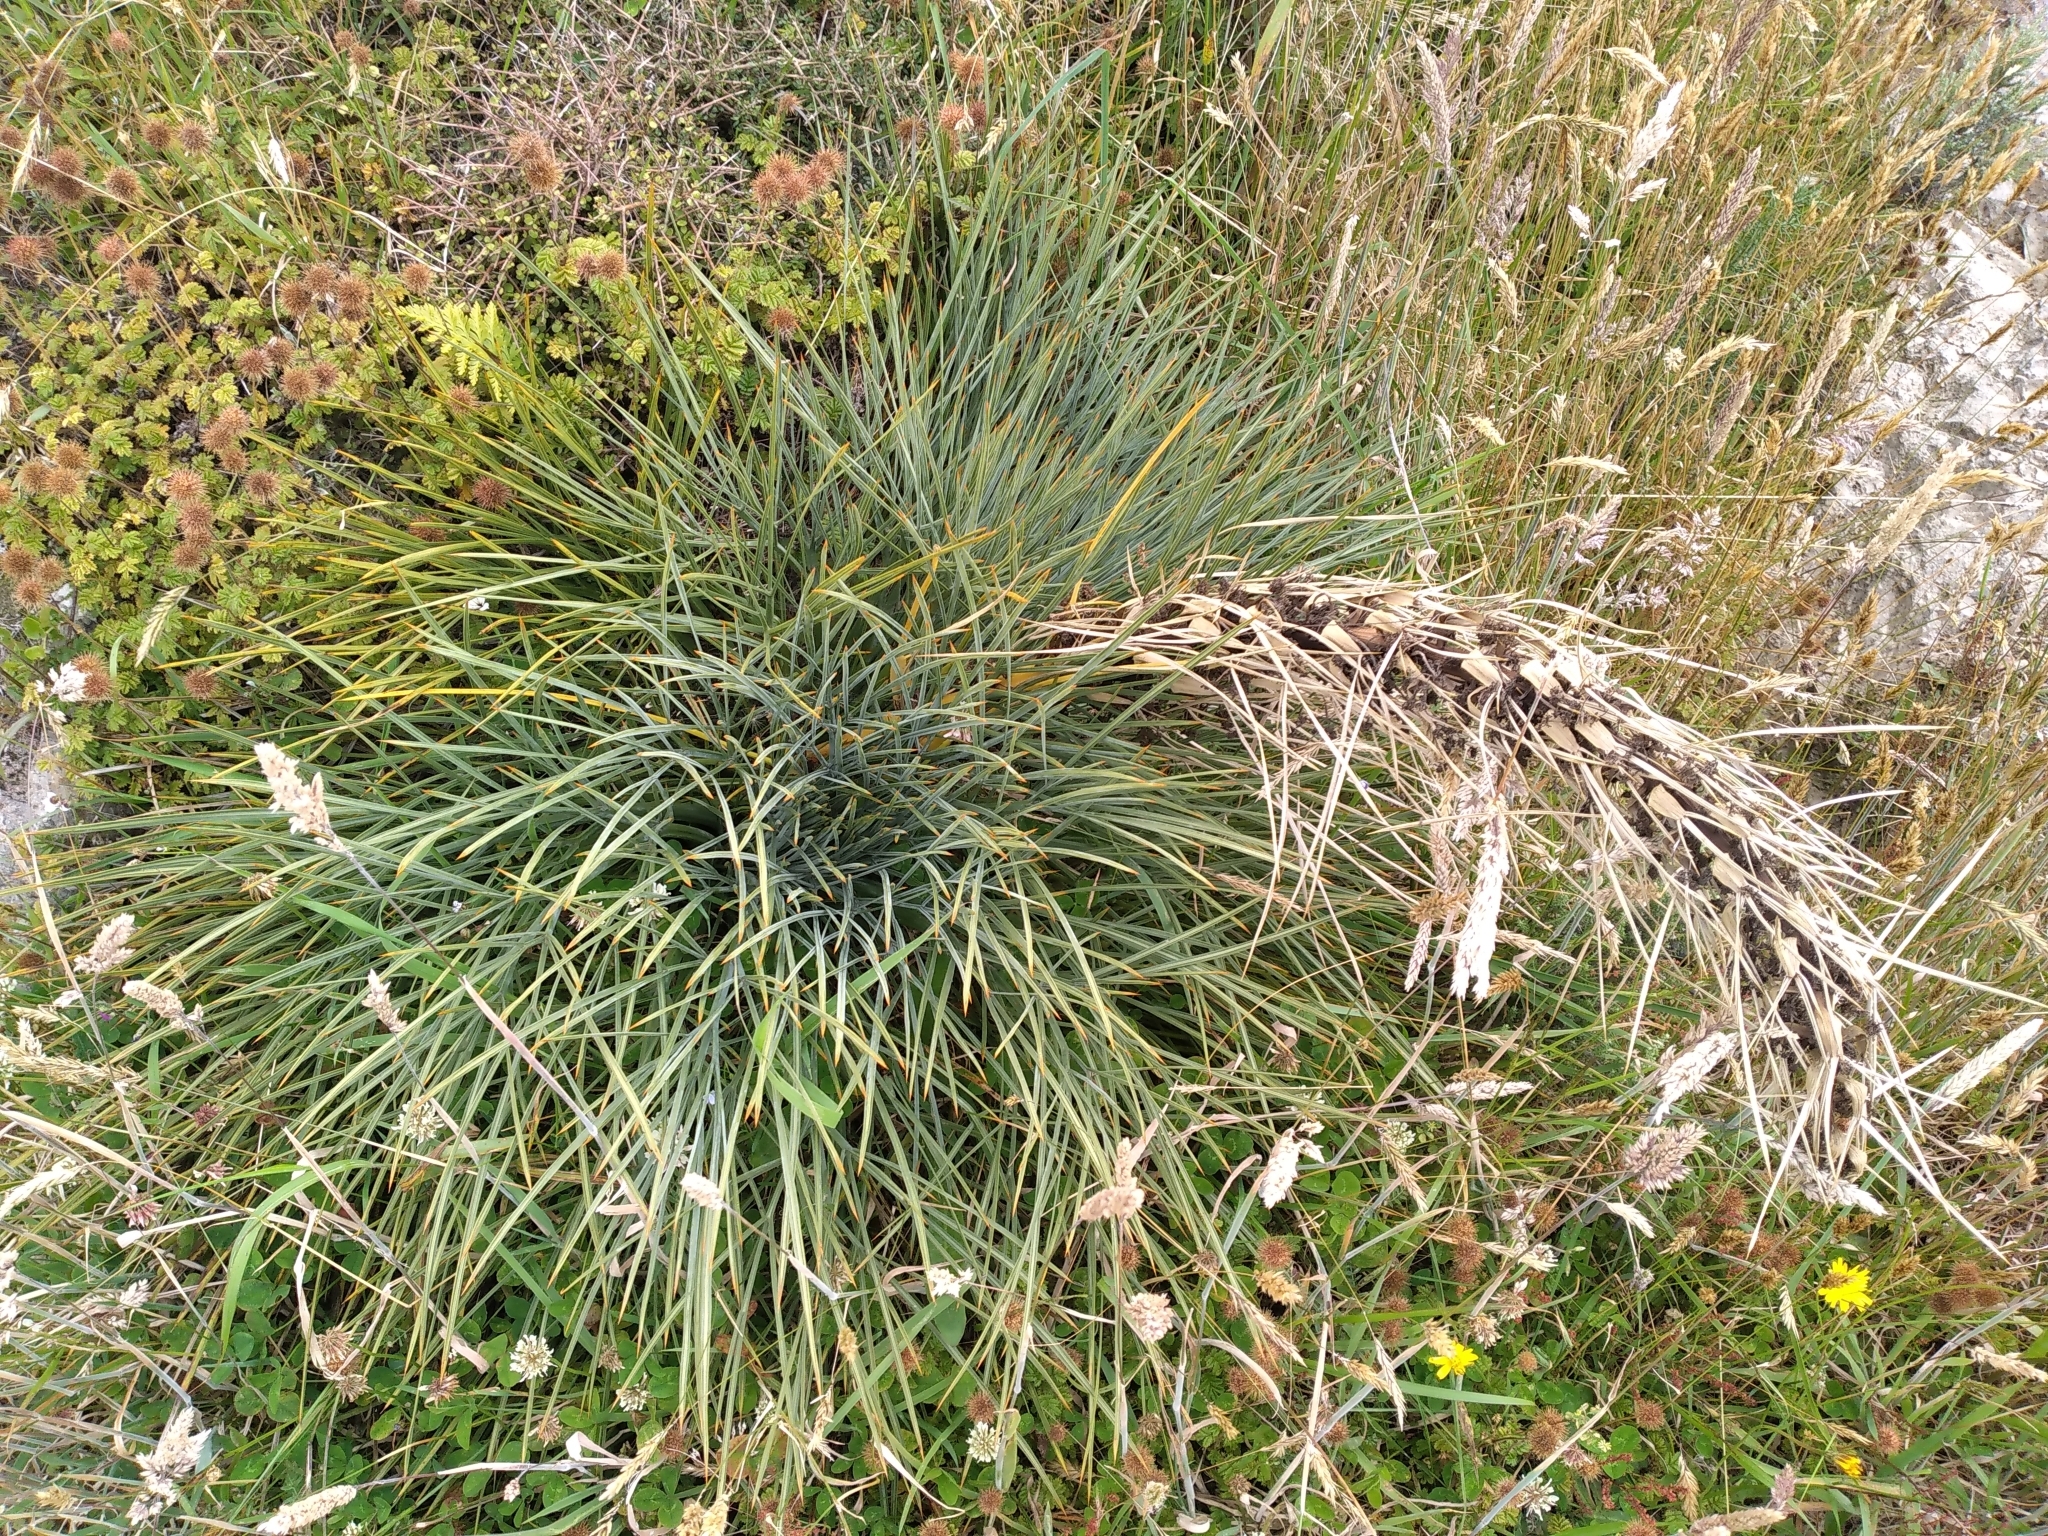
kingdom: Plantae
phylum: Tracheophyta
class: Magnoliopsida
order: Apiales
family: Apiaceae
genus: Aciphylla
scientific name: Aciphylla squarrosa
